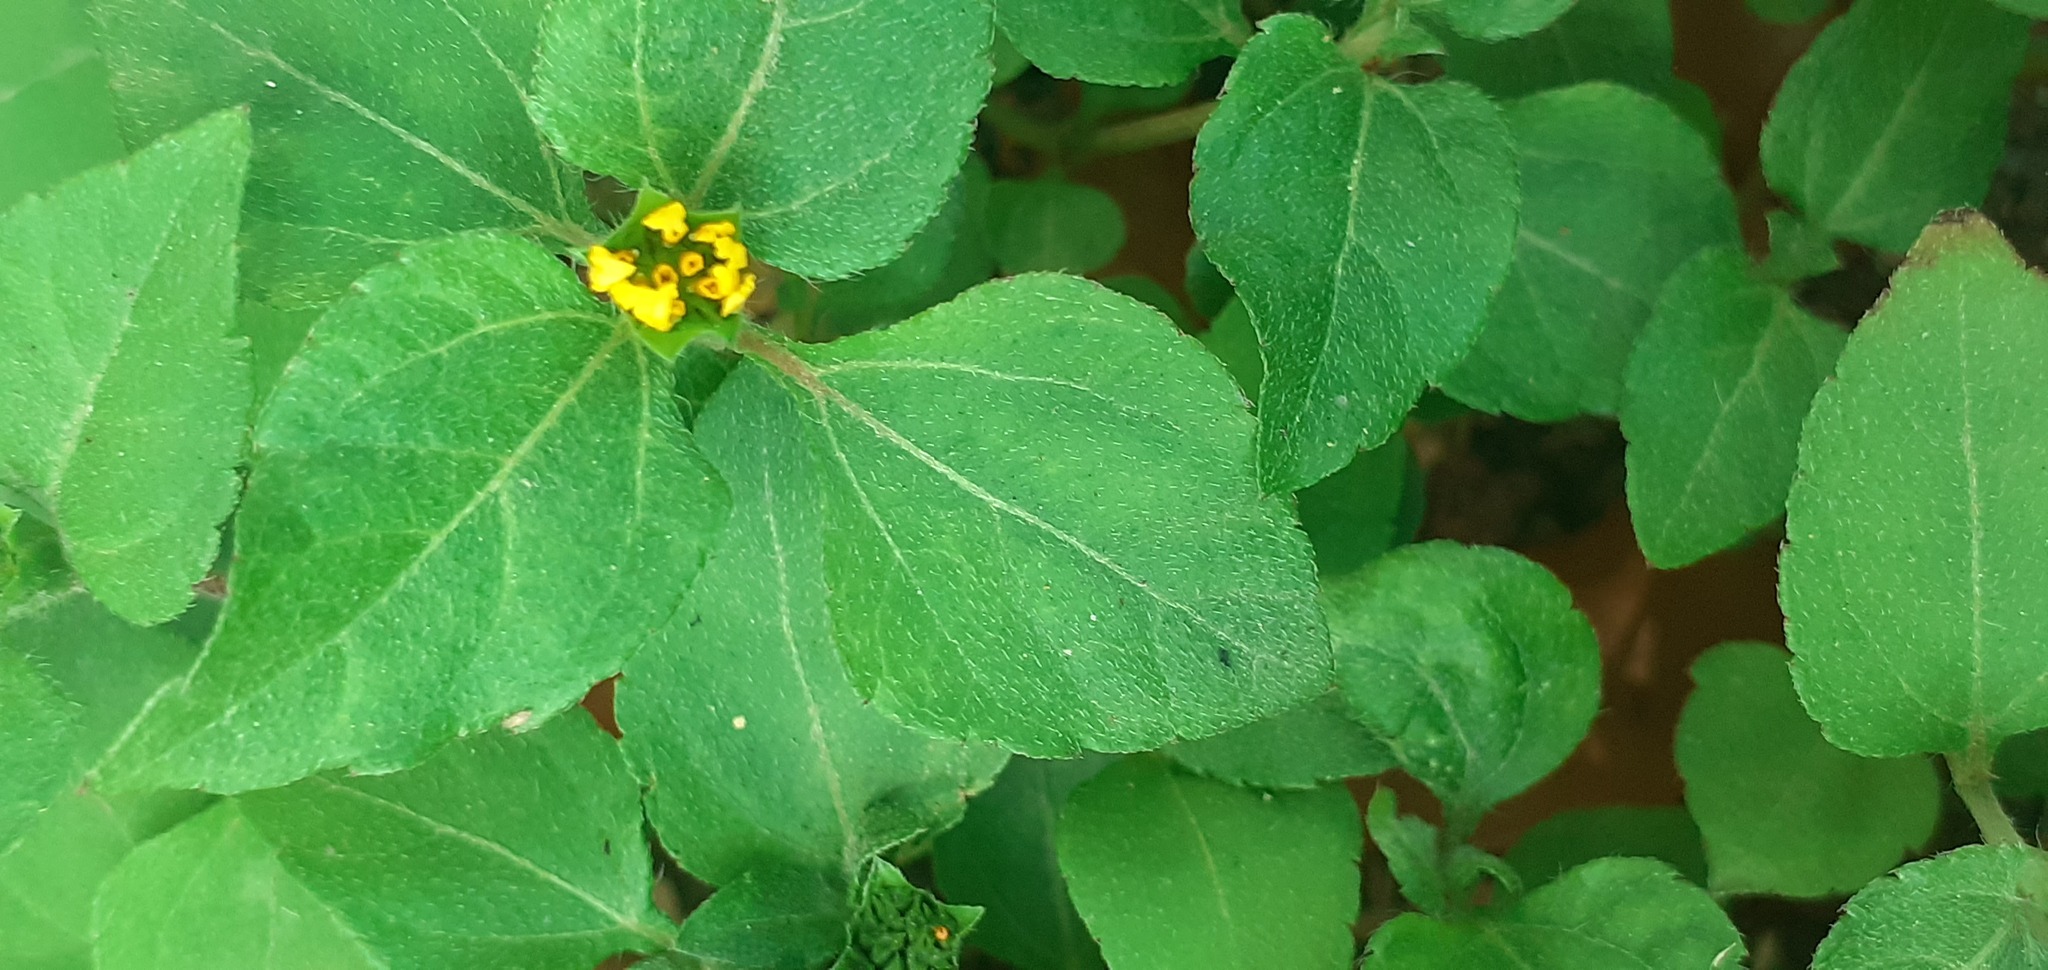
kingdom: Plantae
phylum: Tracheophyta
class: Magnoliopsida
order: Asterales
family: Asteraceae
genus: Calyptocarpus
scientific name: Calyptocarpus vialis
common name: Straggler daisy
